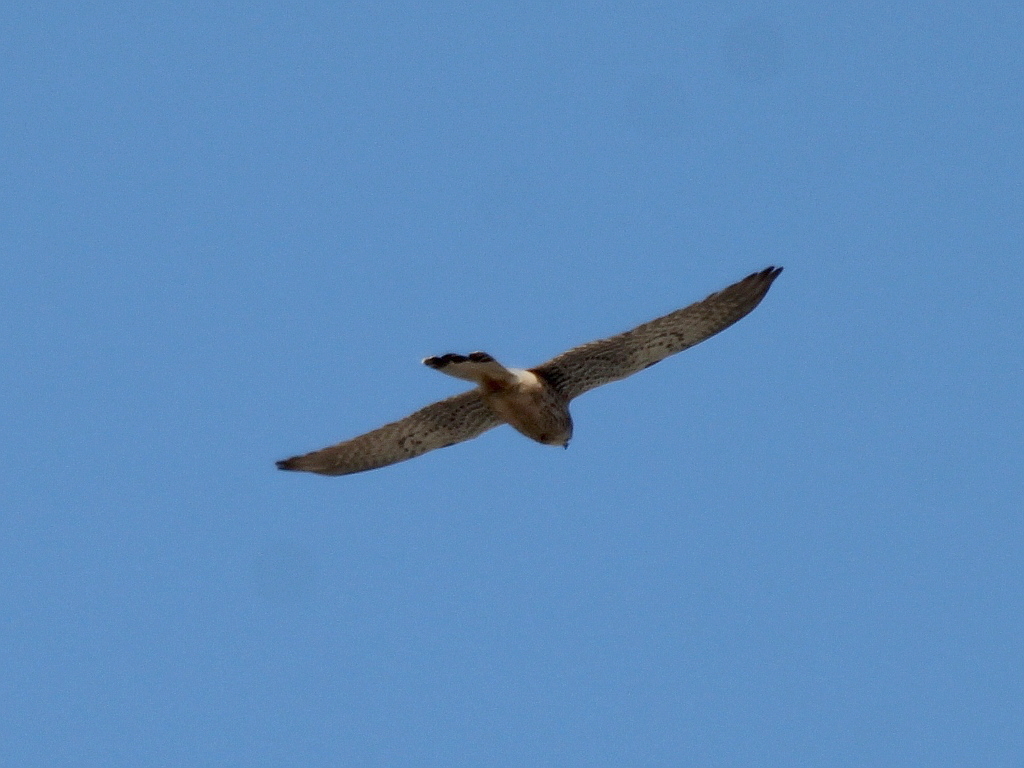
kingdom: Animalia
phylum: Chordata
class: Aves
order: Falconiformes
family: Falconidae
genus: Falco
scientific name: Falco tinnunculus
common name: Common kestrel
